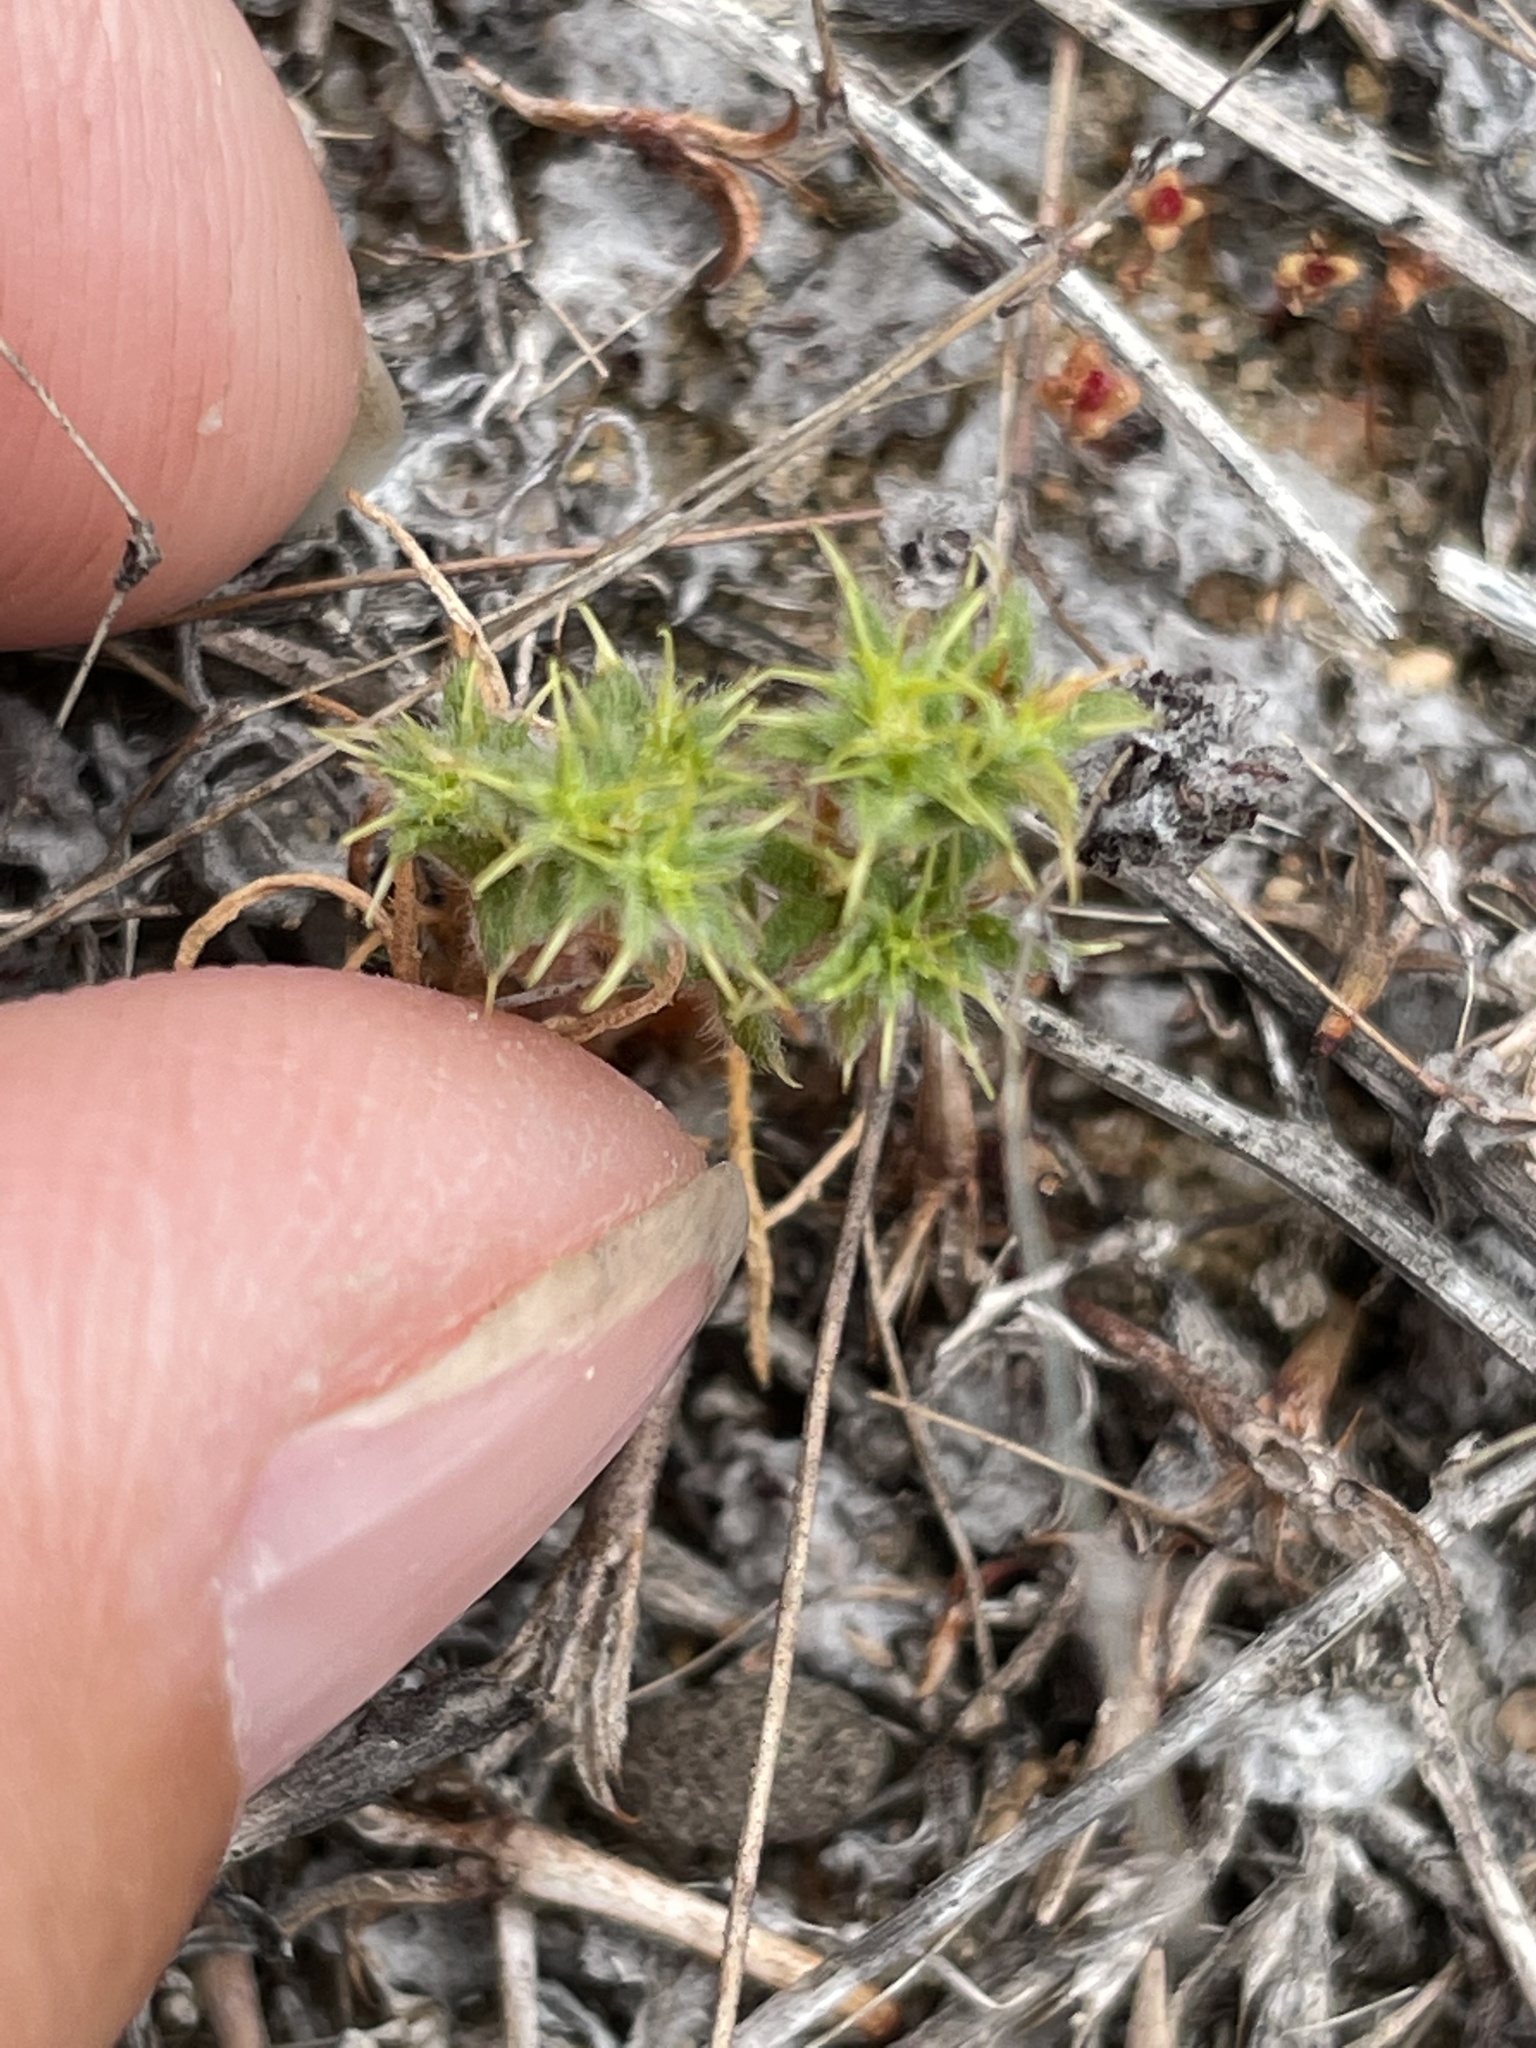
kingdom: Plantae
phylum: Tracheophyta
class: Magnoliopsida
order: Caryophyllales
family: Polygonaceae
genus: Lastarriaea
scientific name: Lastarriaea coriacea
